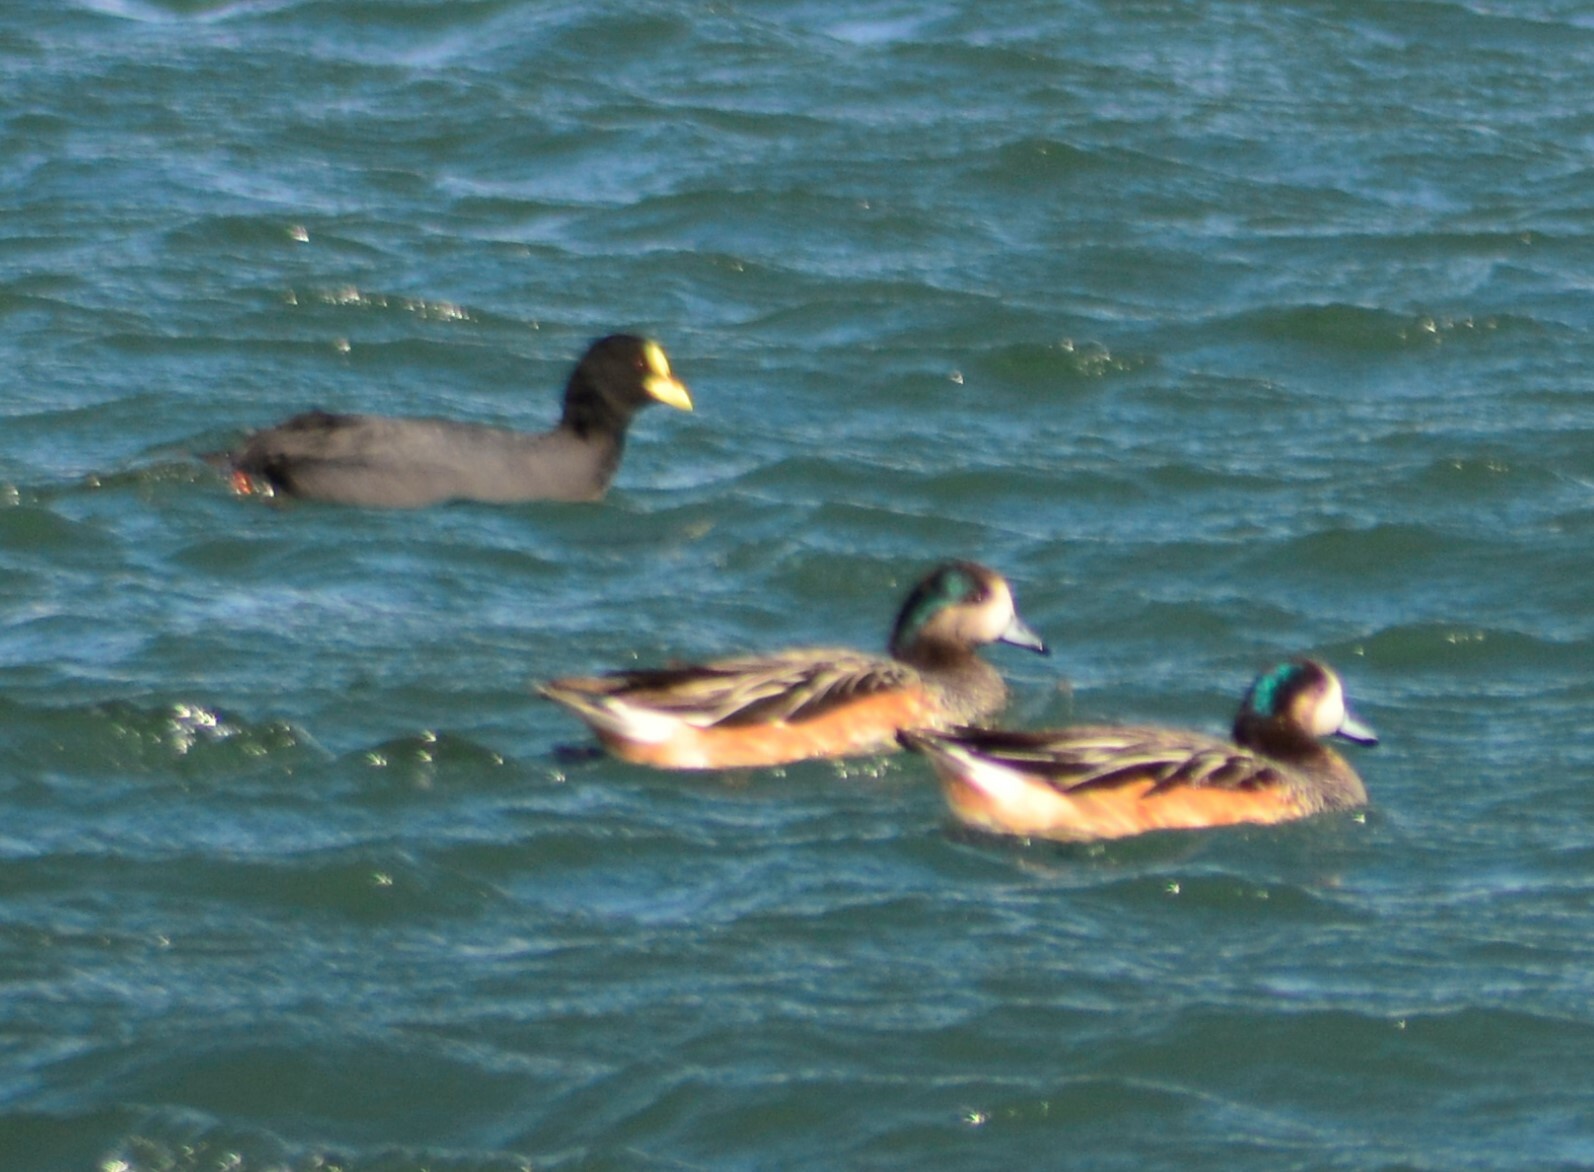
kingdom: Animalia
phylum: Chordata
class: Aves
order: Anseriformes
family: Anatidae
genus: Mareca
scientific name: Mareca sibilatrix
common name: Chiloe wigeon
